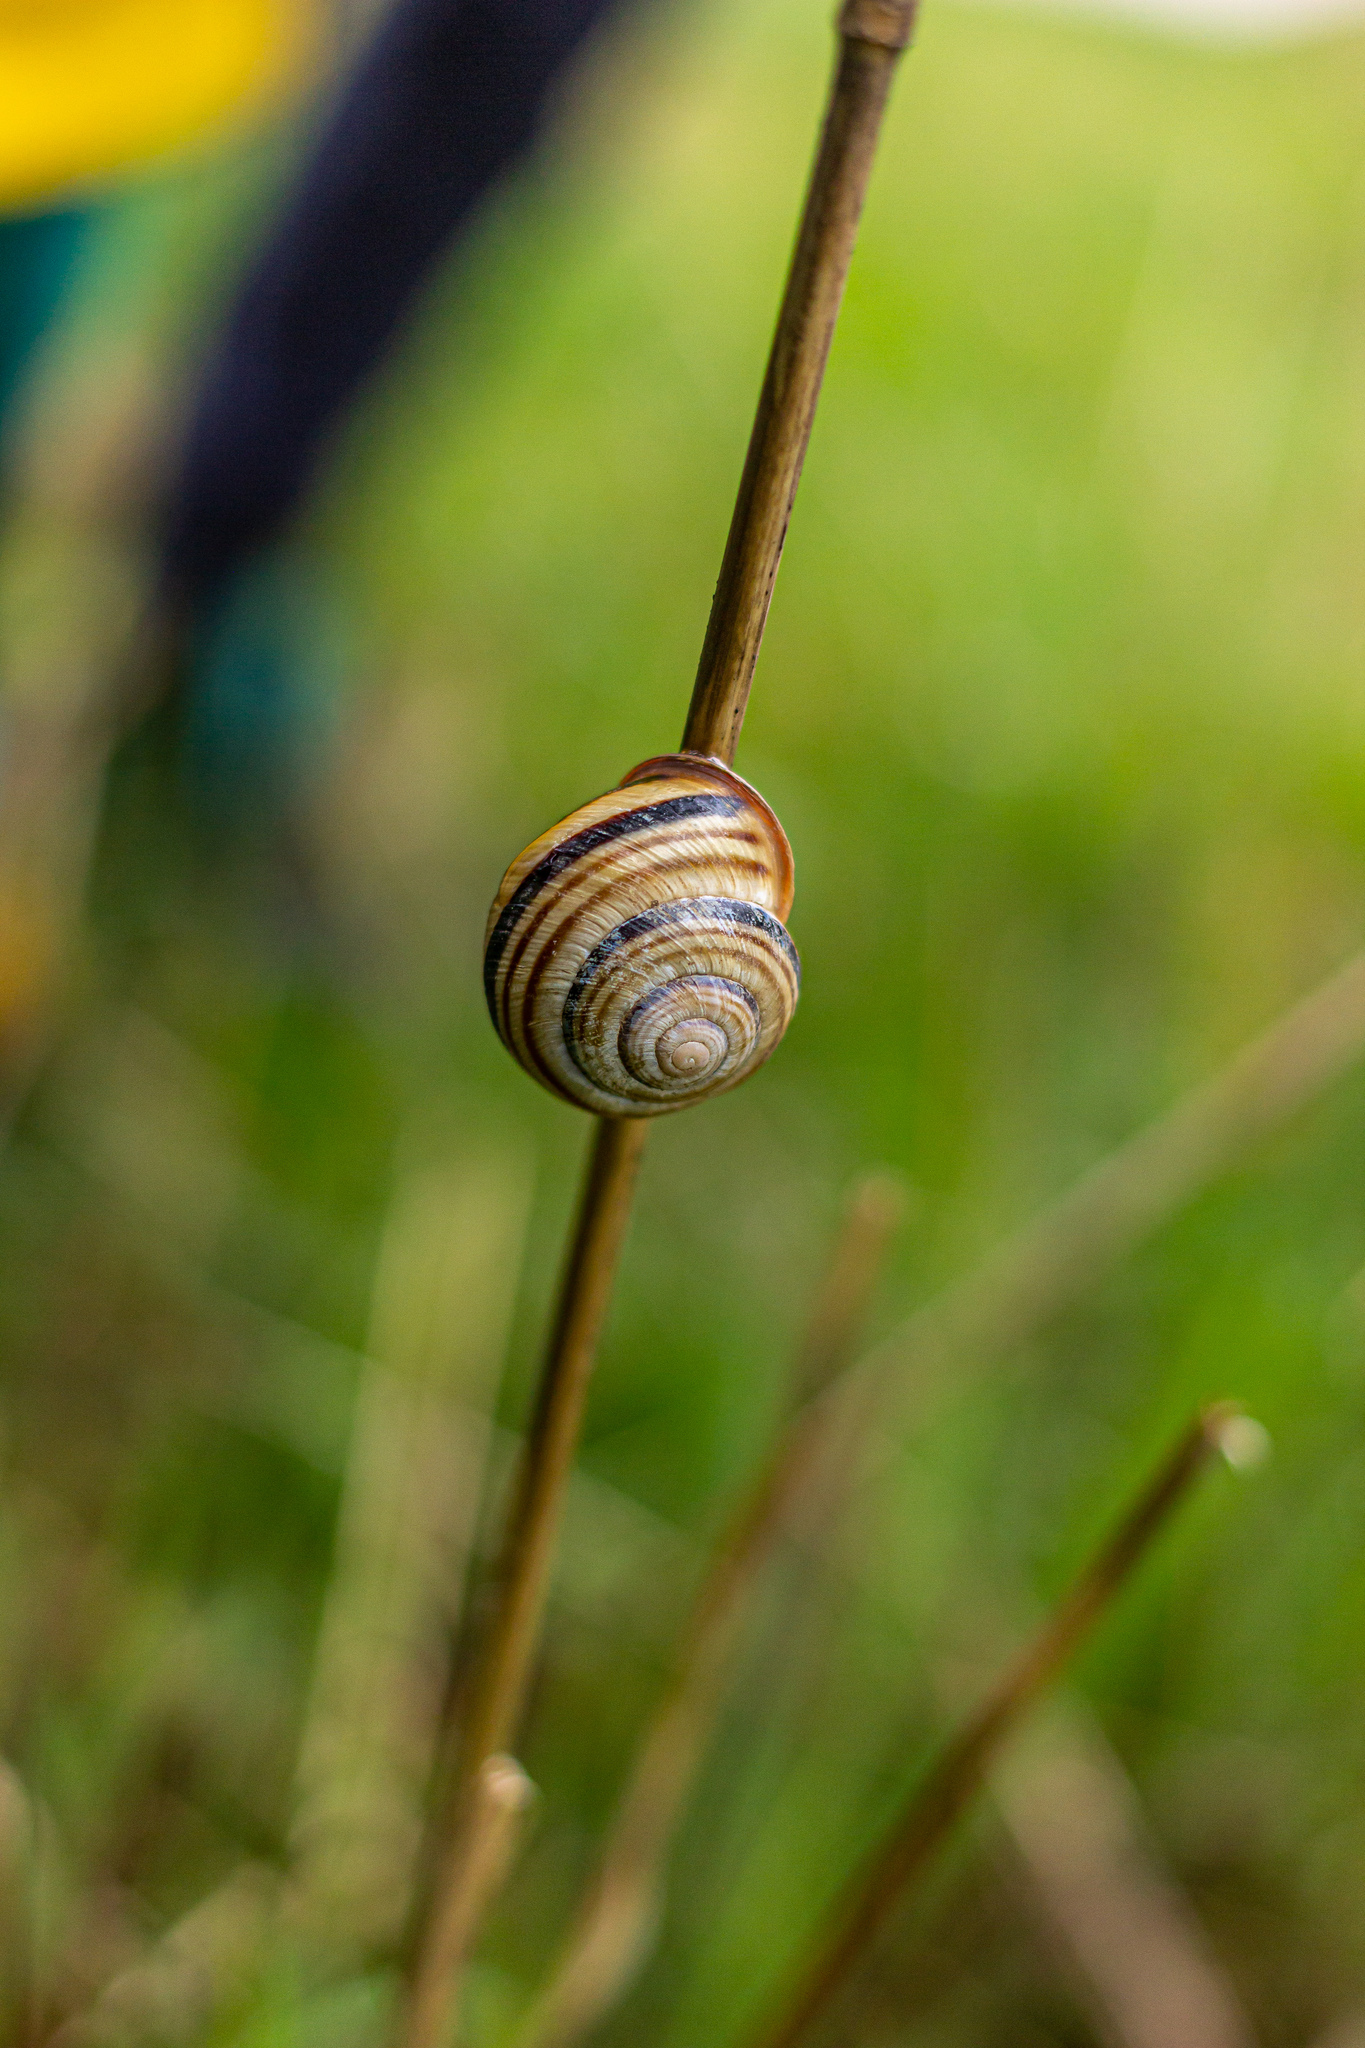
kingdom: Animalia
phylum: Mollusca
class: Gastropoda
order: Stylommatophora
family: Helicidae
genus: Caucasotachea
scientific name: Caucasotachea vindobonensis
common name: European helicid land snail
